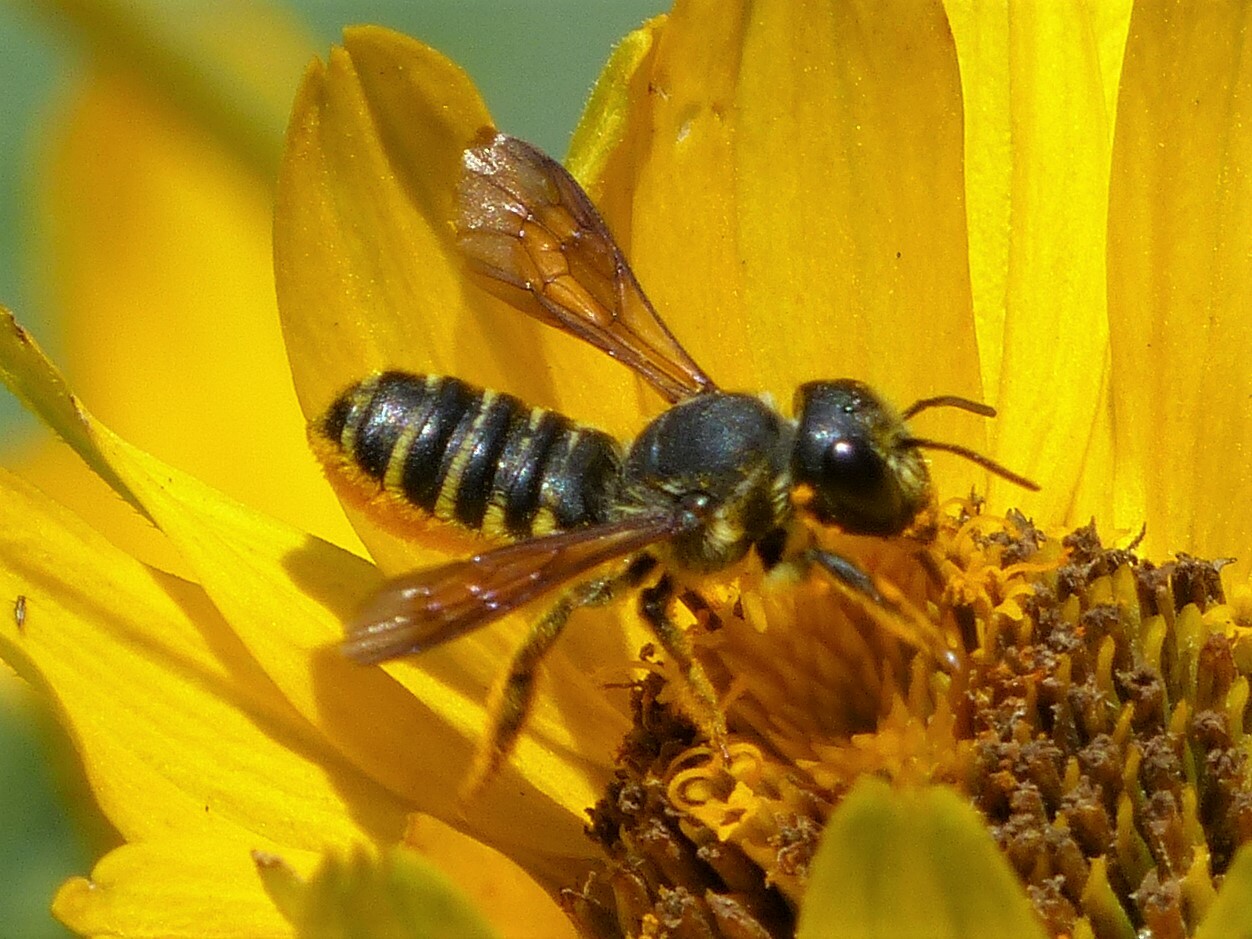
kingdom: Animalia
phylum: Arthropoda
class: Insecta
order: Hymenoptera
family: Megachilidae
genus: Megachile
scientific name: Megachile inimica
